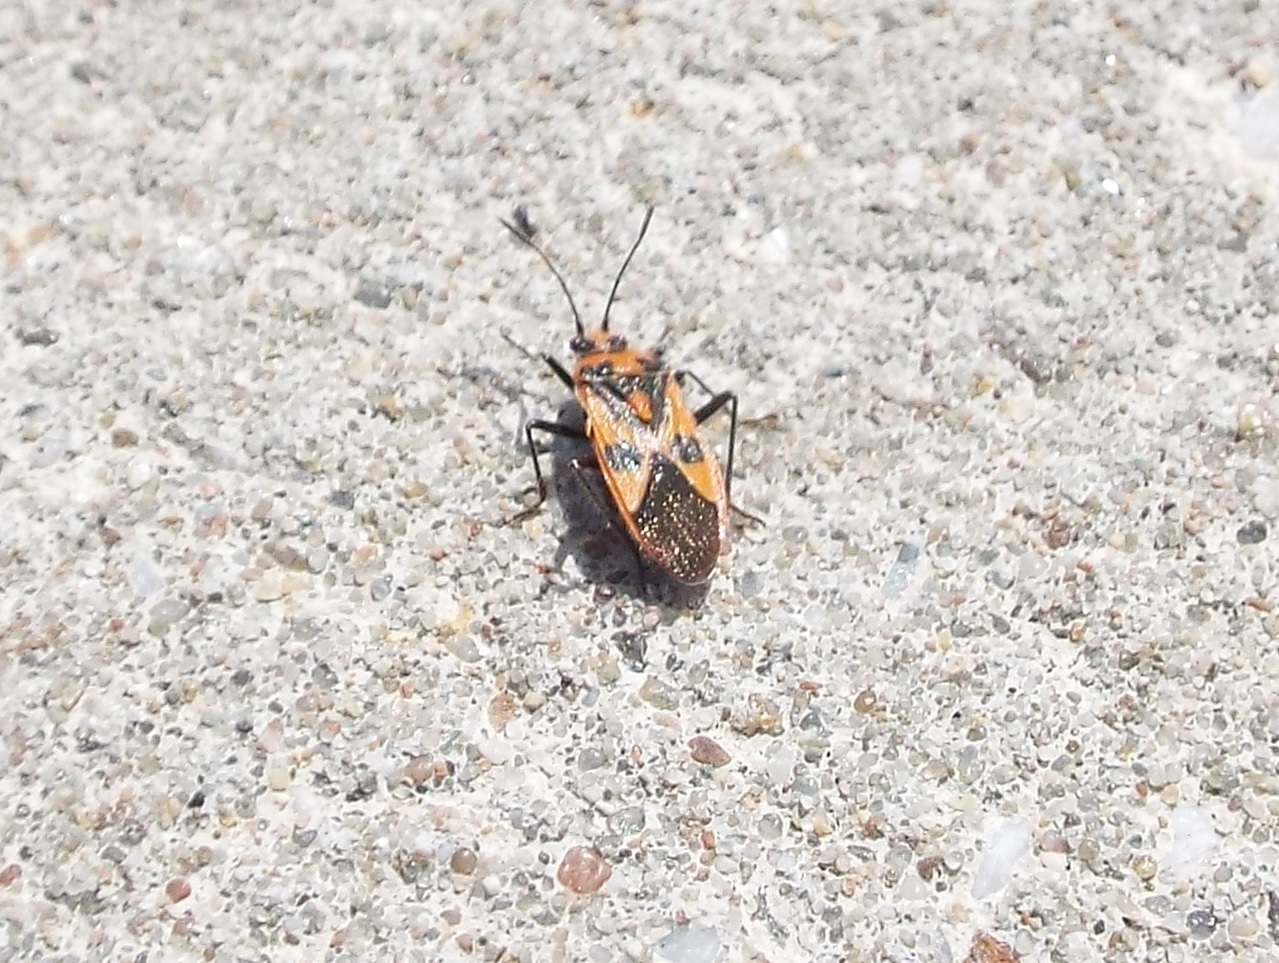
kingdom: Animalia
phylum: Arthropoda
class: Insecta
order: Hemiptera
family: Rhopalidae
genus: Corizus
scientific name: Corizus hyoscyami
